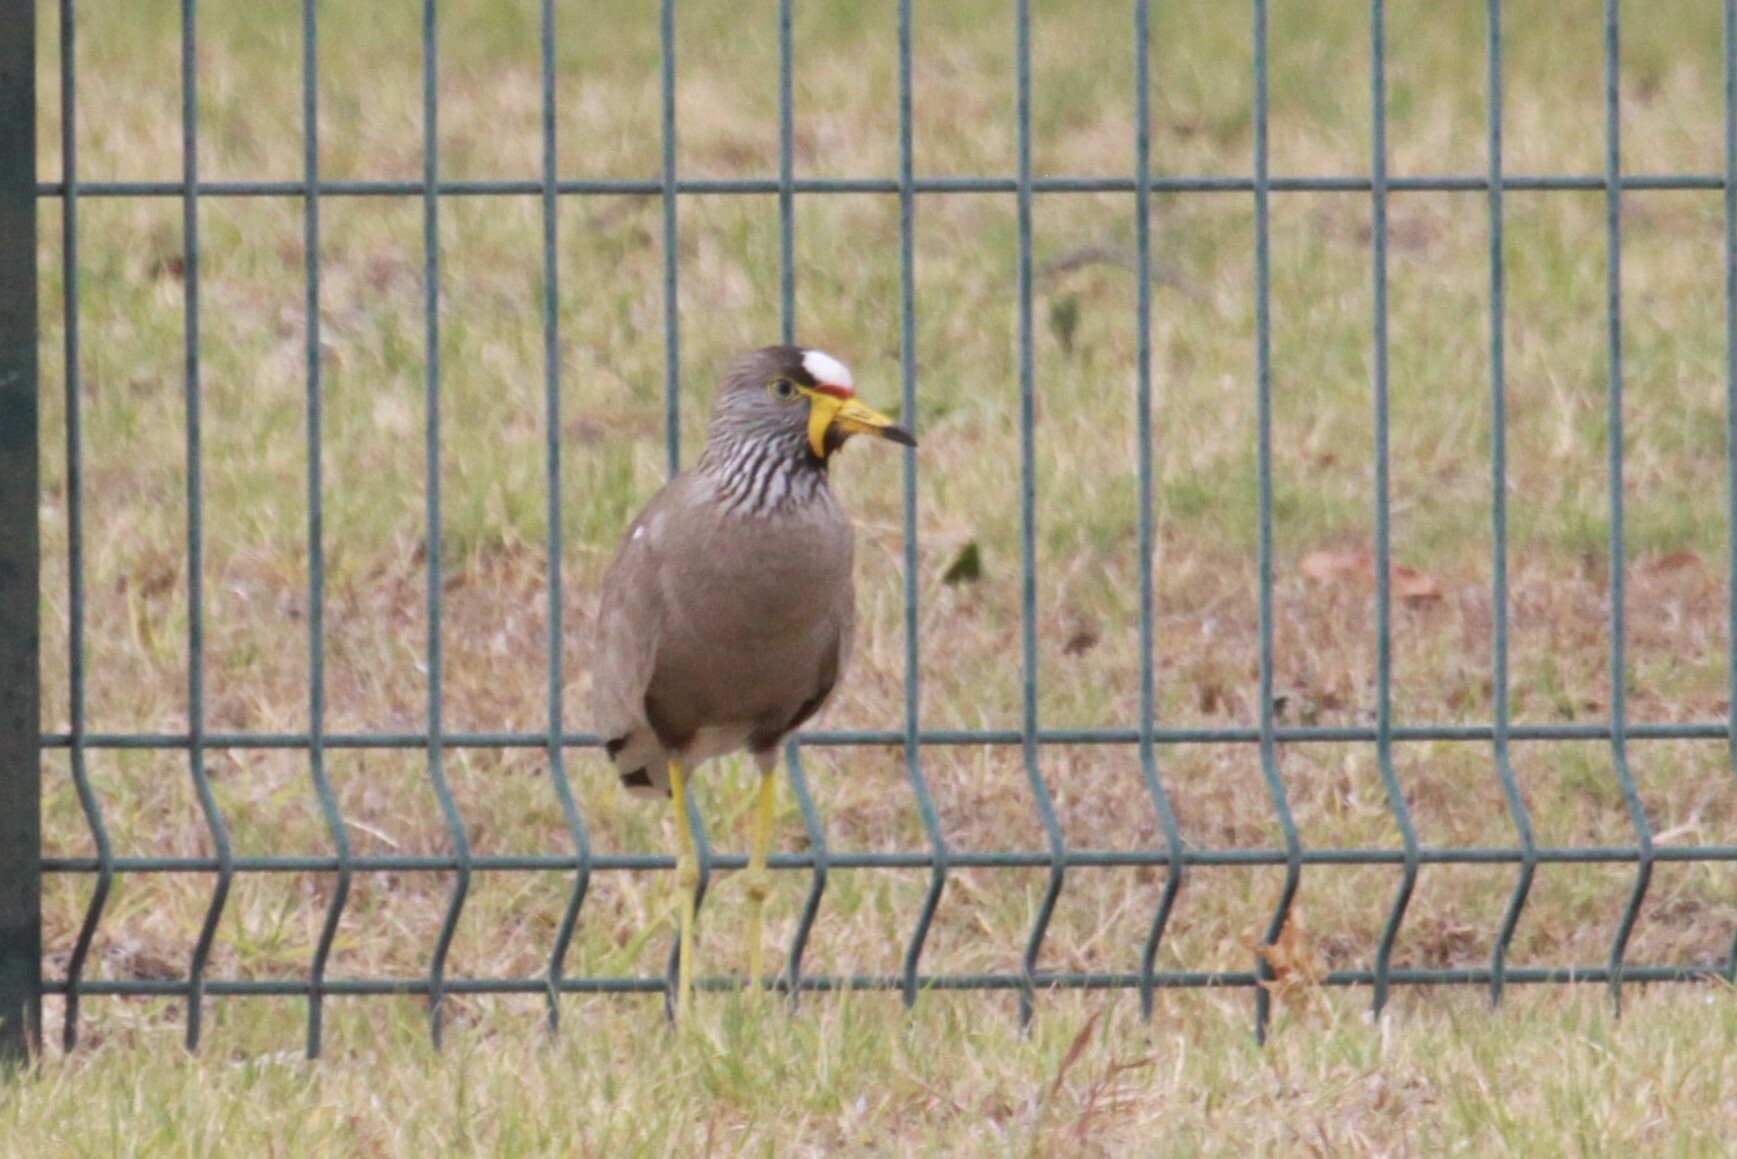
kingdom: Animalia
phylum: Chordata
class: Aves
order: Charadriiformes
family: Charadriidae
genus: Vanellus
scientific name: Vanellus senegallus
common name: African wattled lapwing
